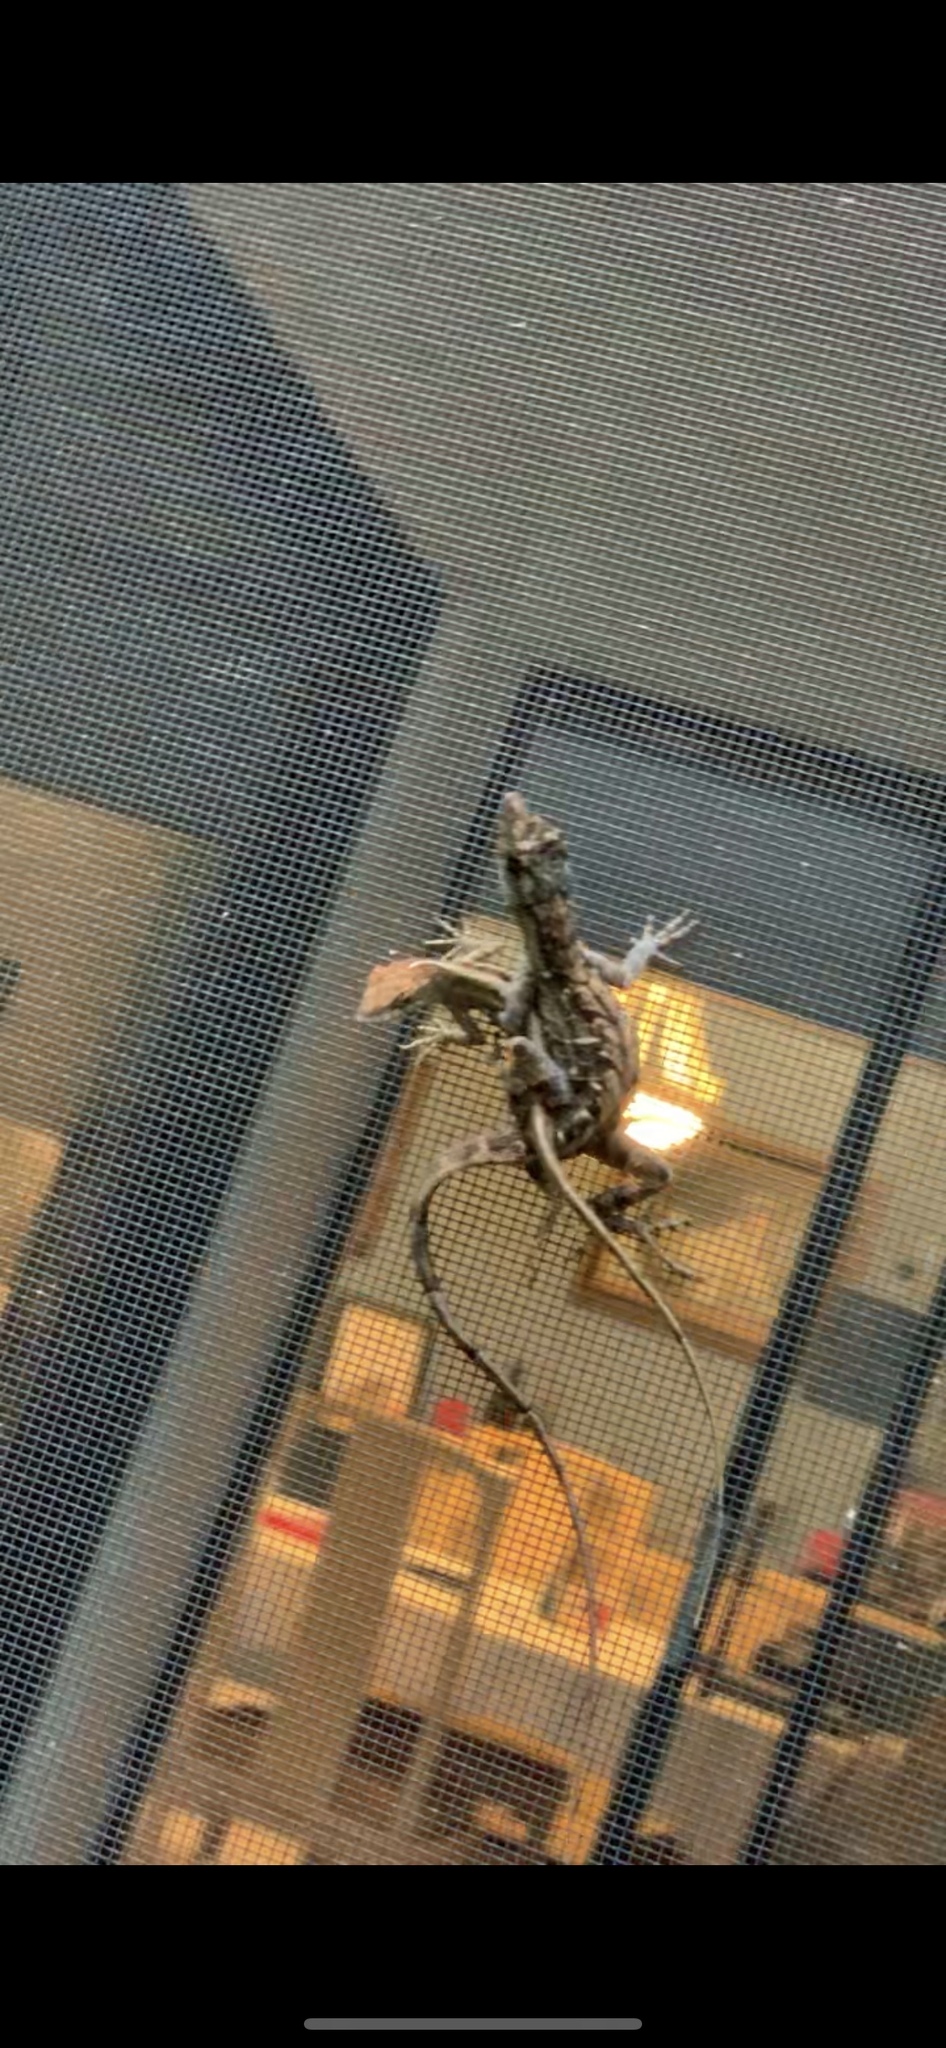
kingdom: Animalia
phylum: Chordata
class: Squamata
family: Dactyloidae
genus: Anolis
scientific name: Anolis sagrei
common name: Brown anole
